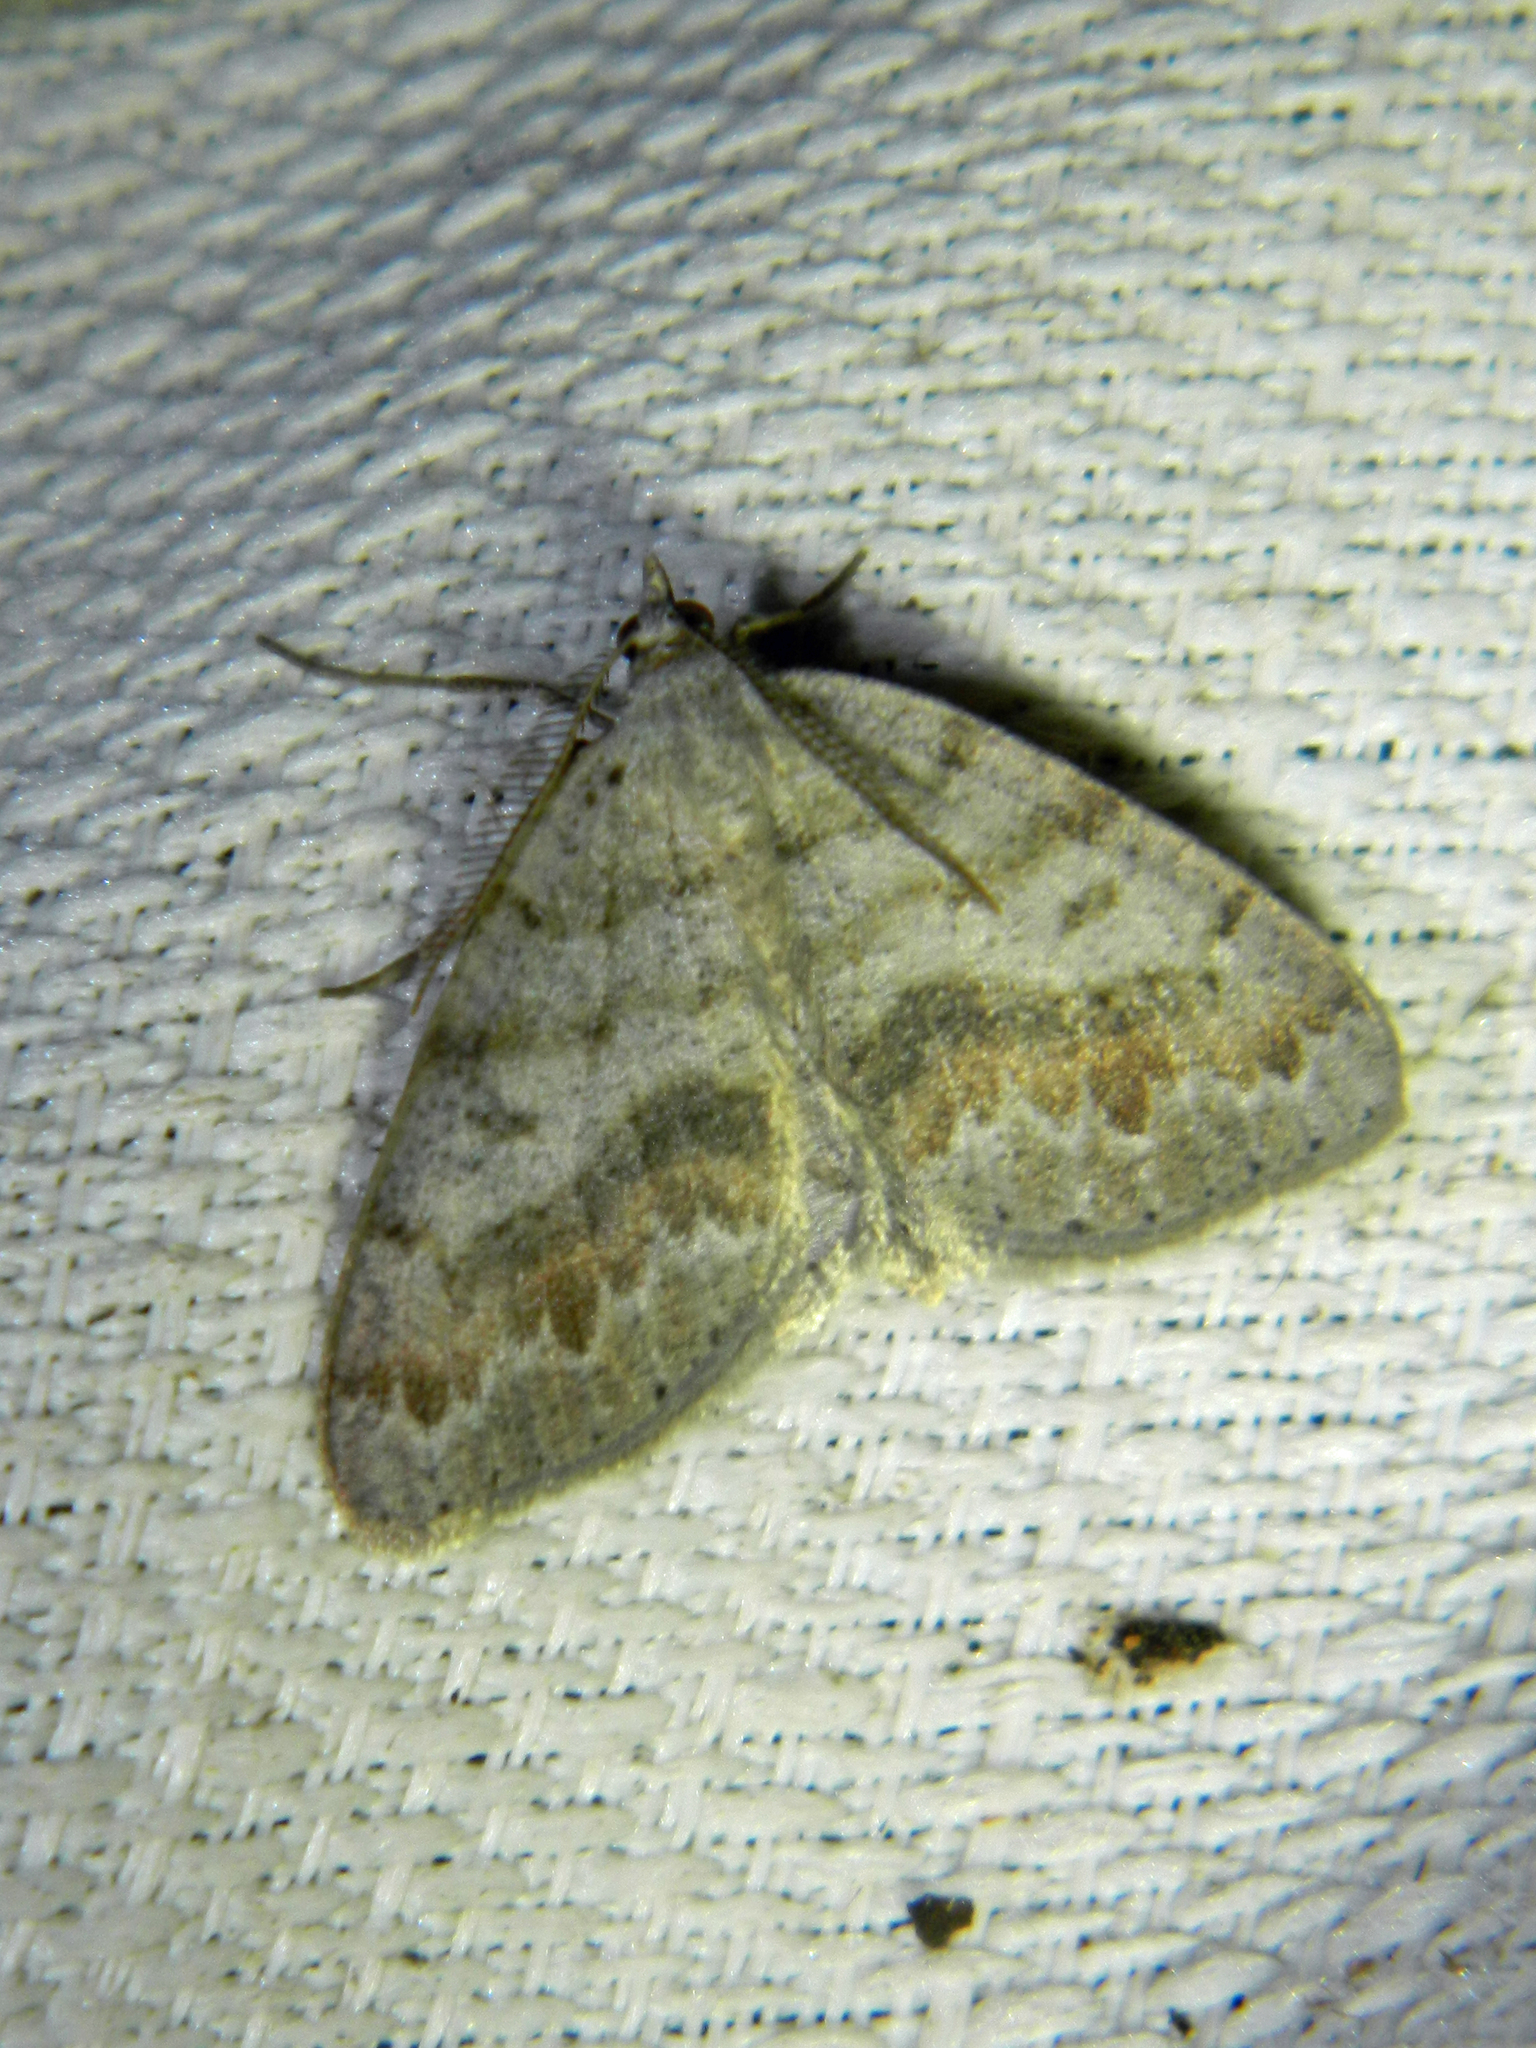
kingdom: Animalia
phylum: Arthropoda
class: Insecta
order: Lepidoptera
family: Geometridae
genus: Macaria
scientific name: Macaria loricaria
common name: False bruce spanworm
